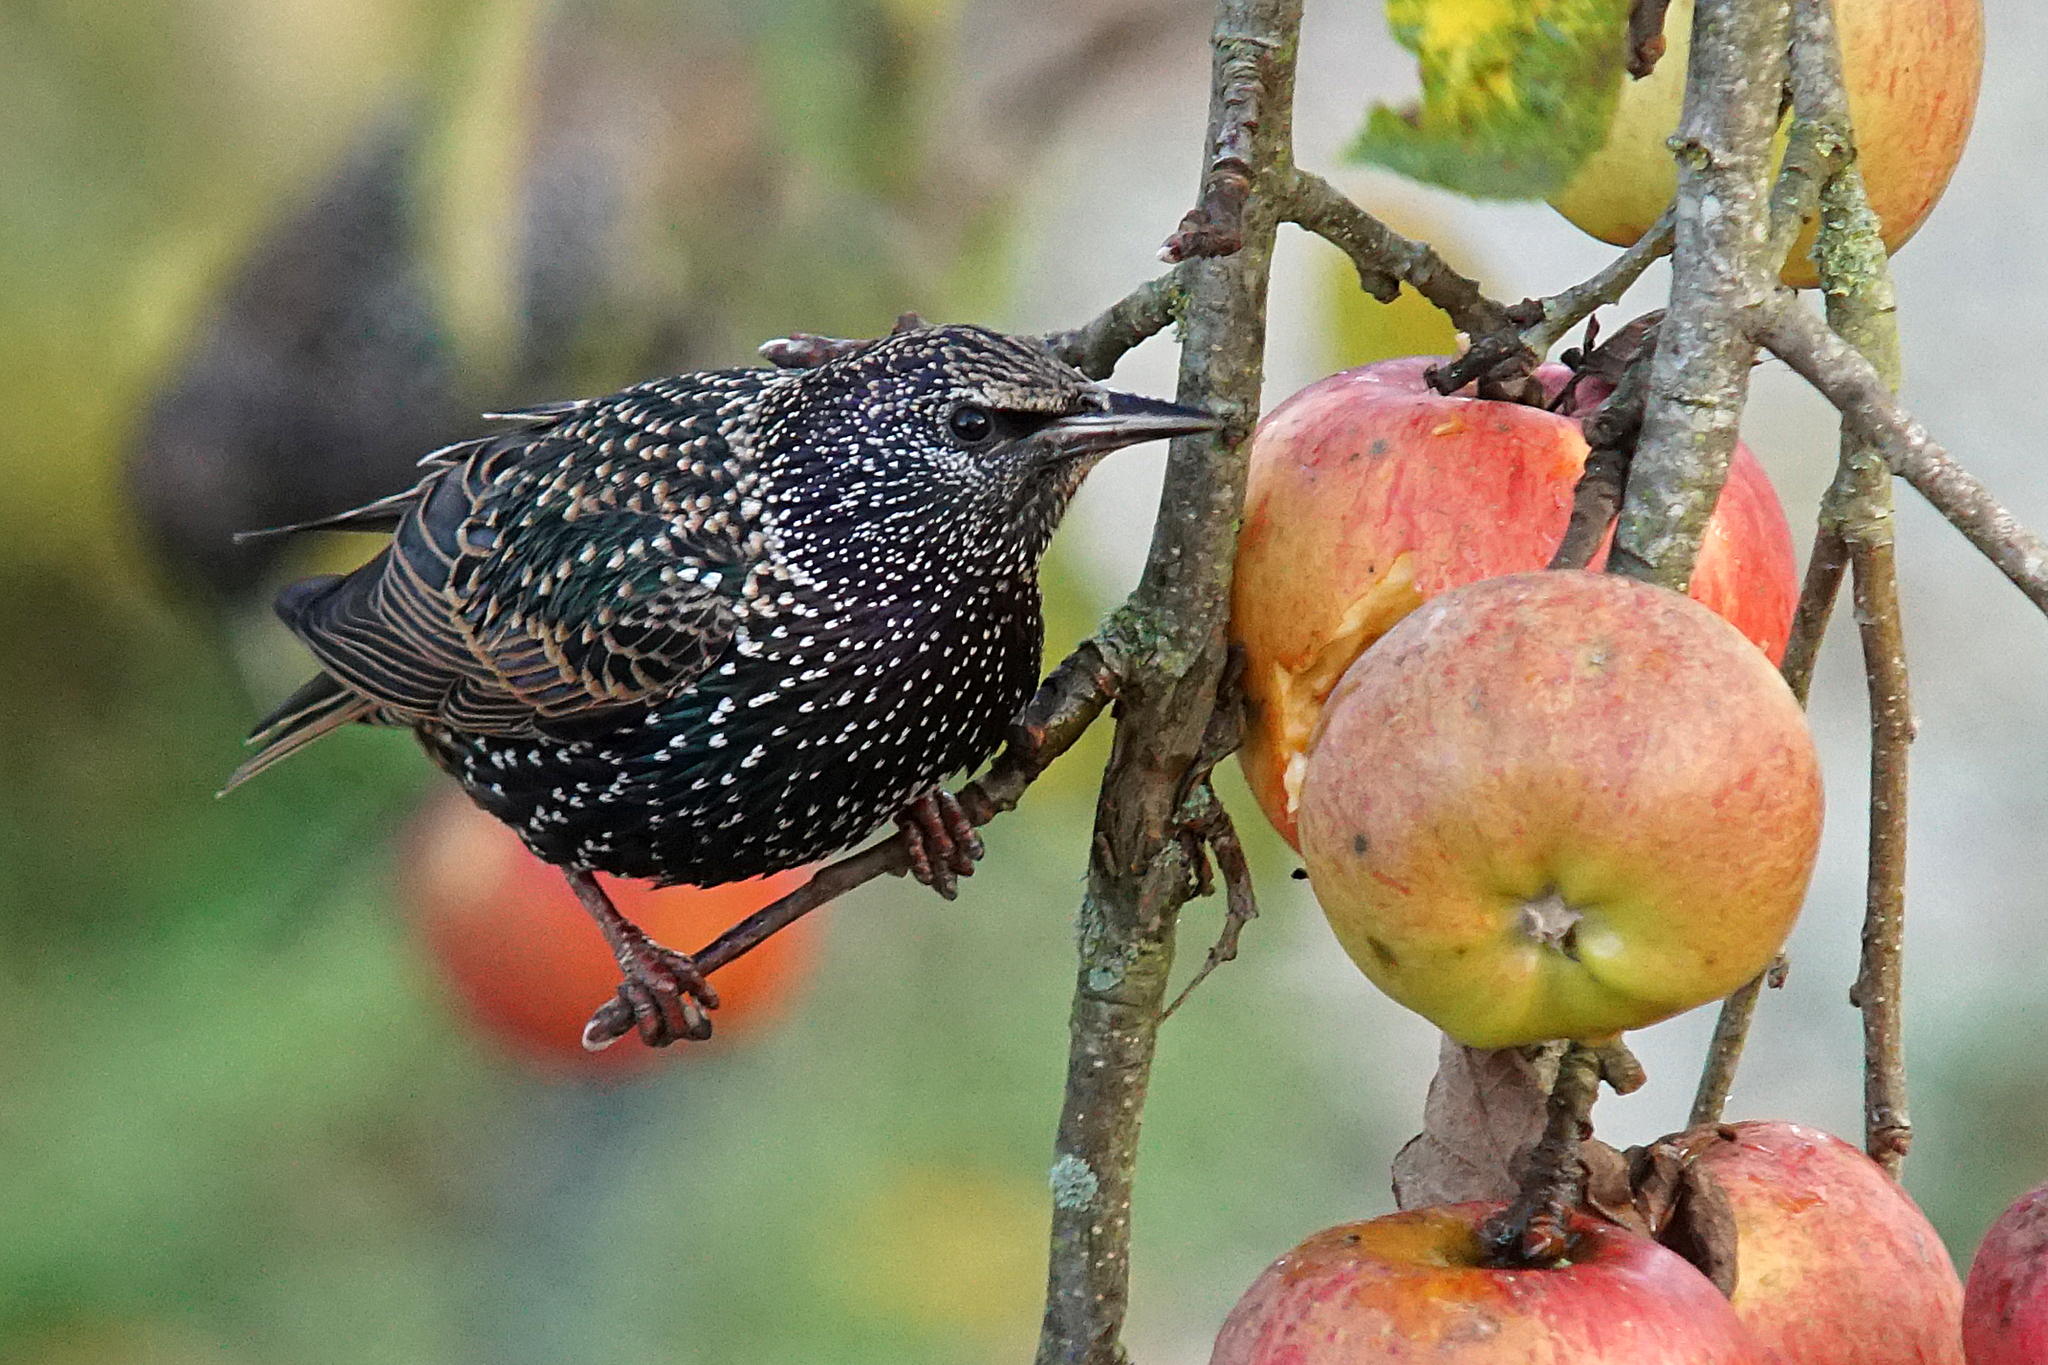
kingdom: Animalia
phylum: Chordata
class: Aves
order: Passeriformes
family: Sturnidae
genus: Sturnus
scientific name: Sturnus vulgaris
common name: Common starling
